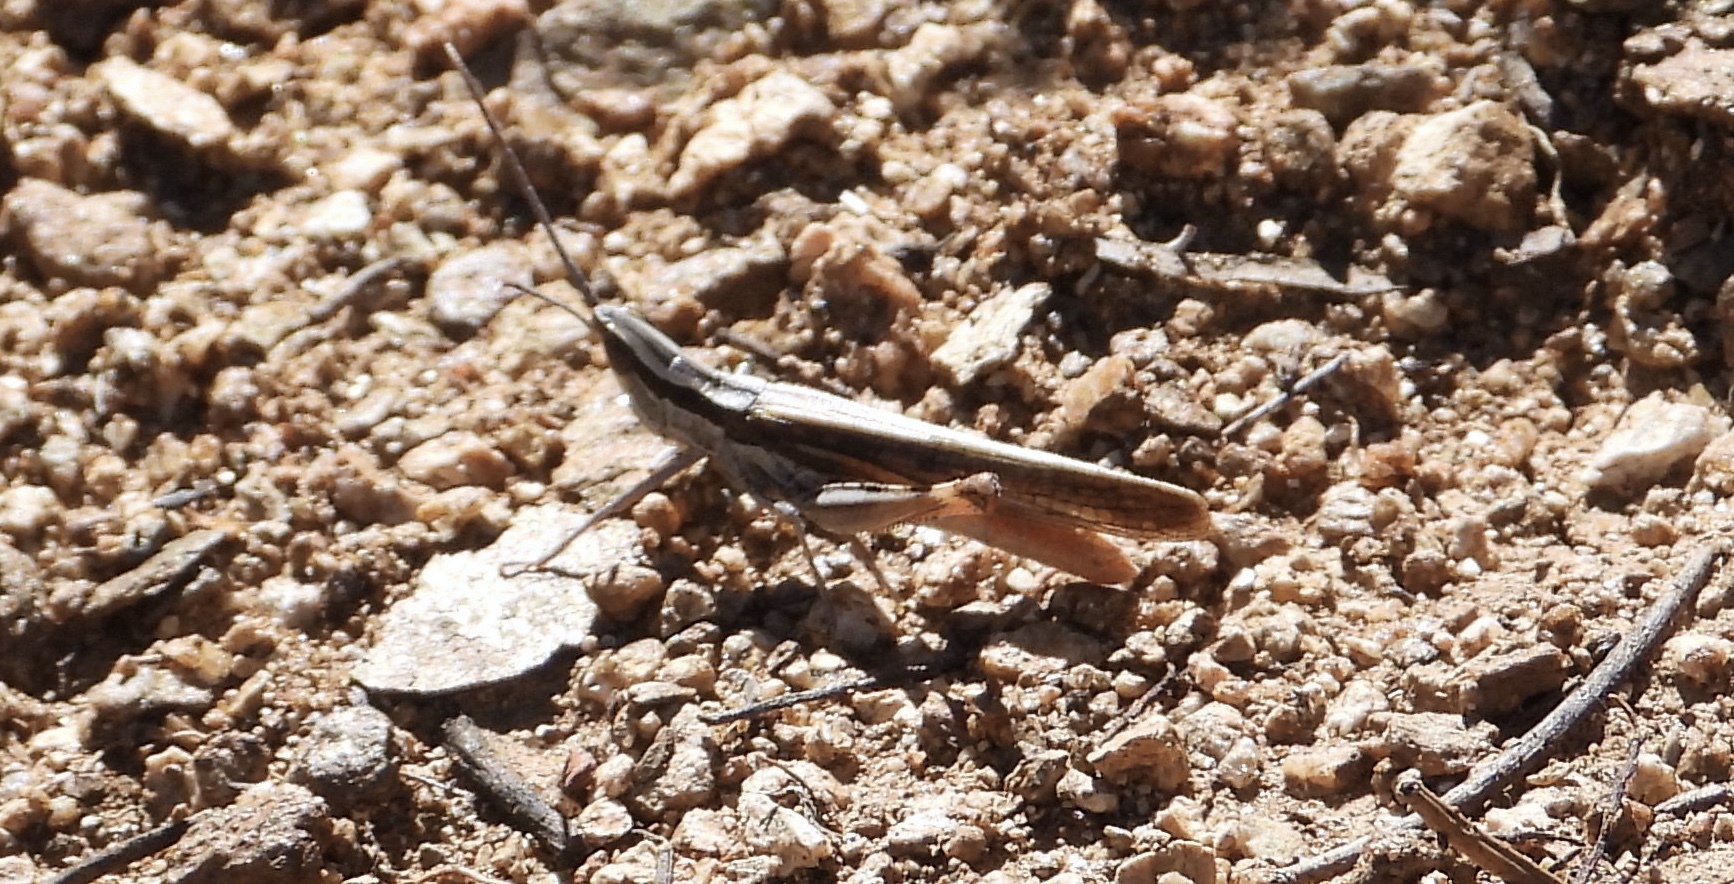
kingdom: Animalia
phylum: Arthropoda
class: Insecta
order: Orthoptera
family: Acrididae
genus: Mermiria
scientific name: Mermiria texana
